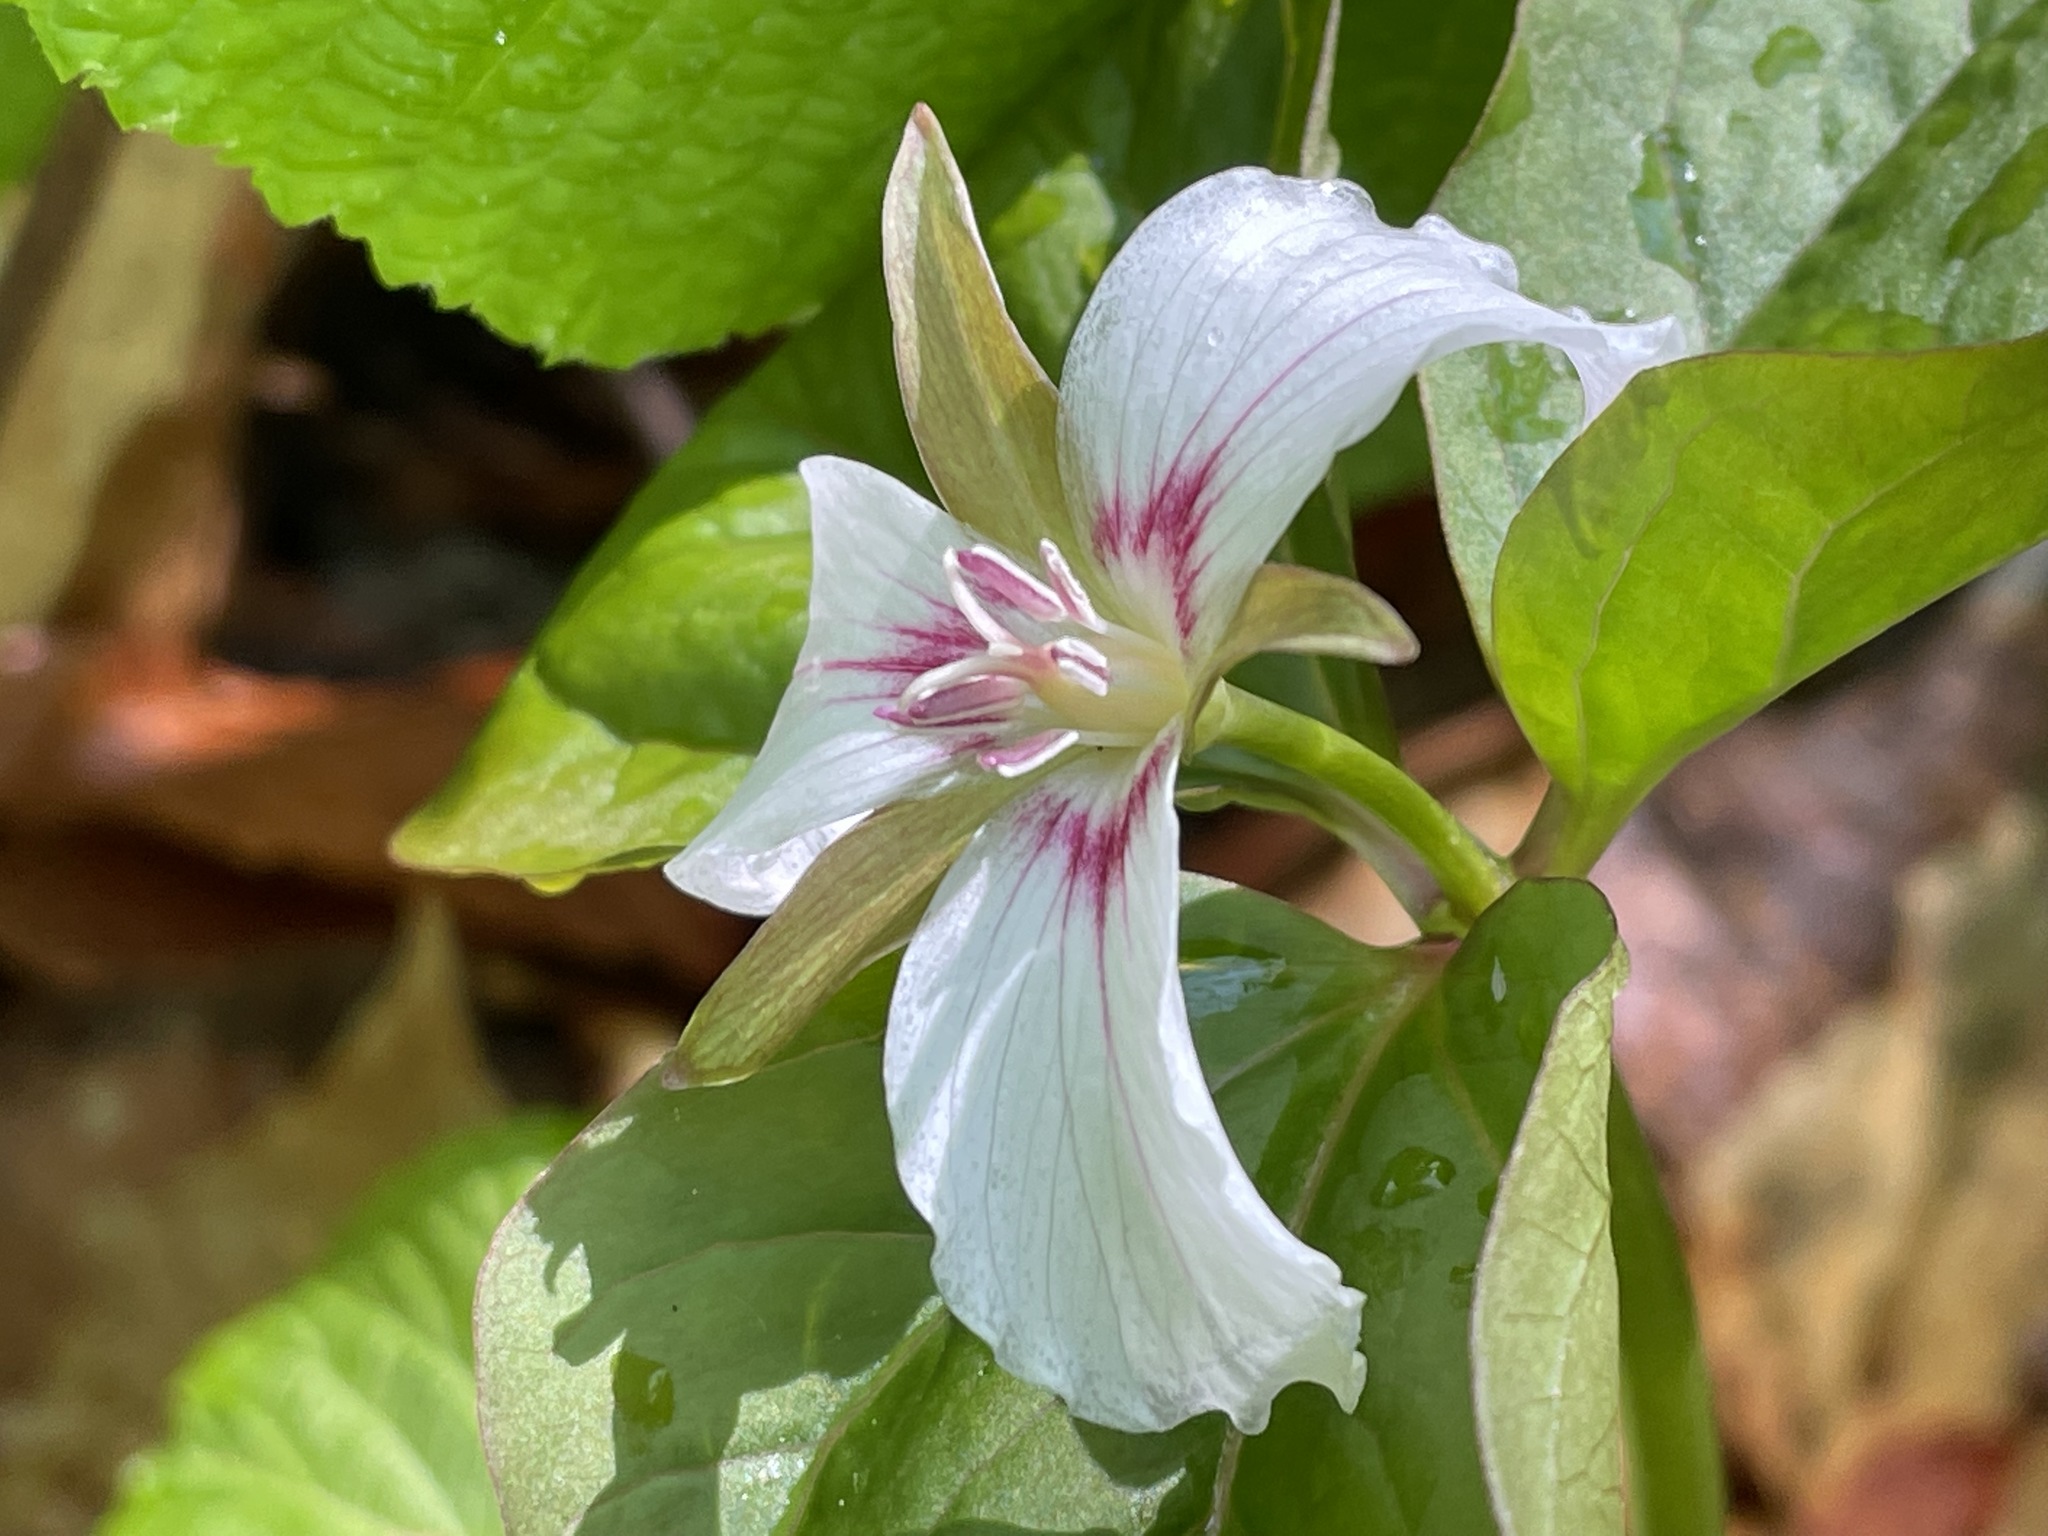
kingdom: Plantae
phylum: Tracheophyta
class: Liliopsida
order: Liliales
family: Melanthiaceae
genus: Trillium
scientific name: Trillium undulatum
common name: Paint trillium
